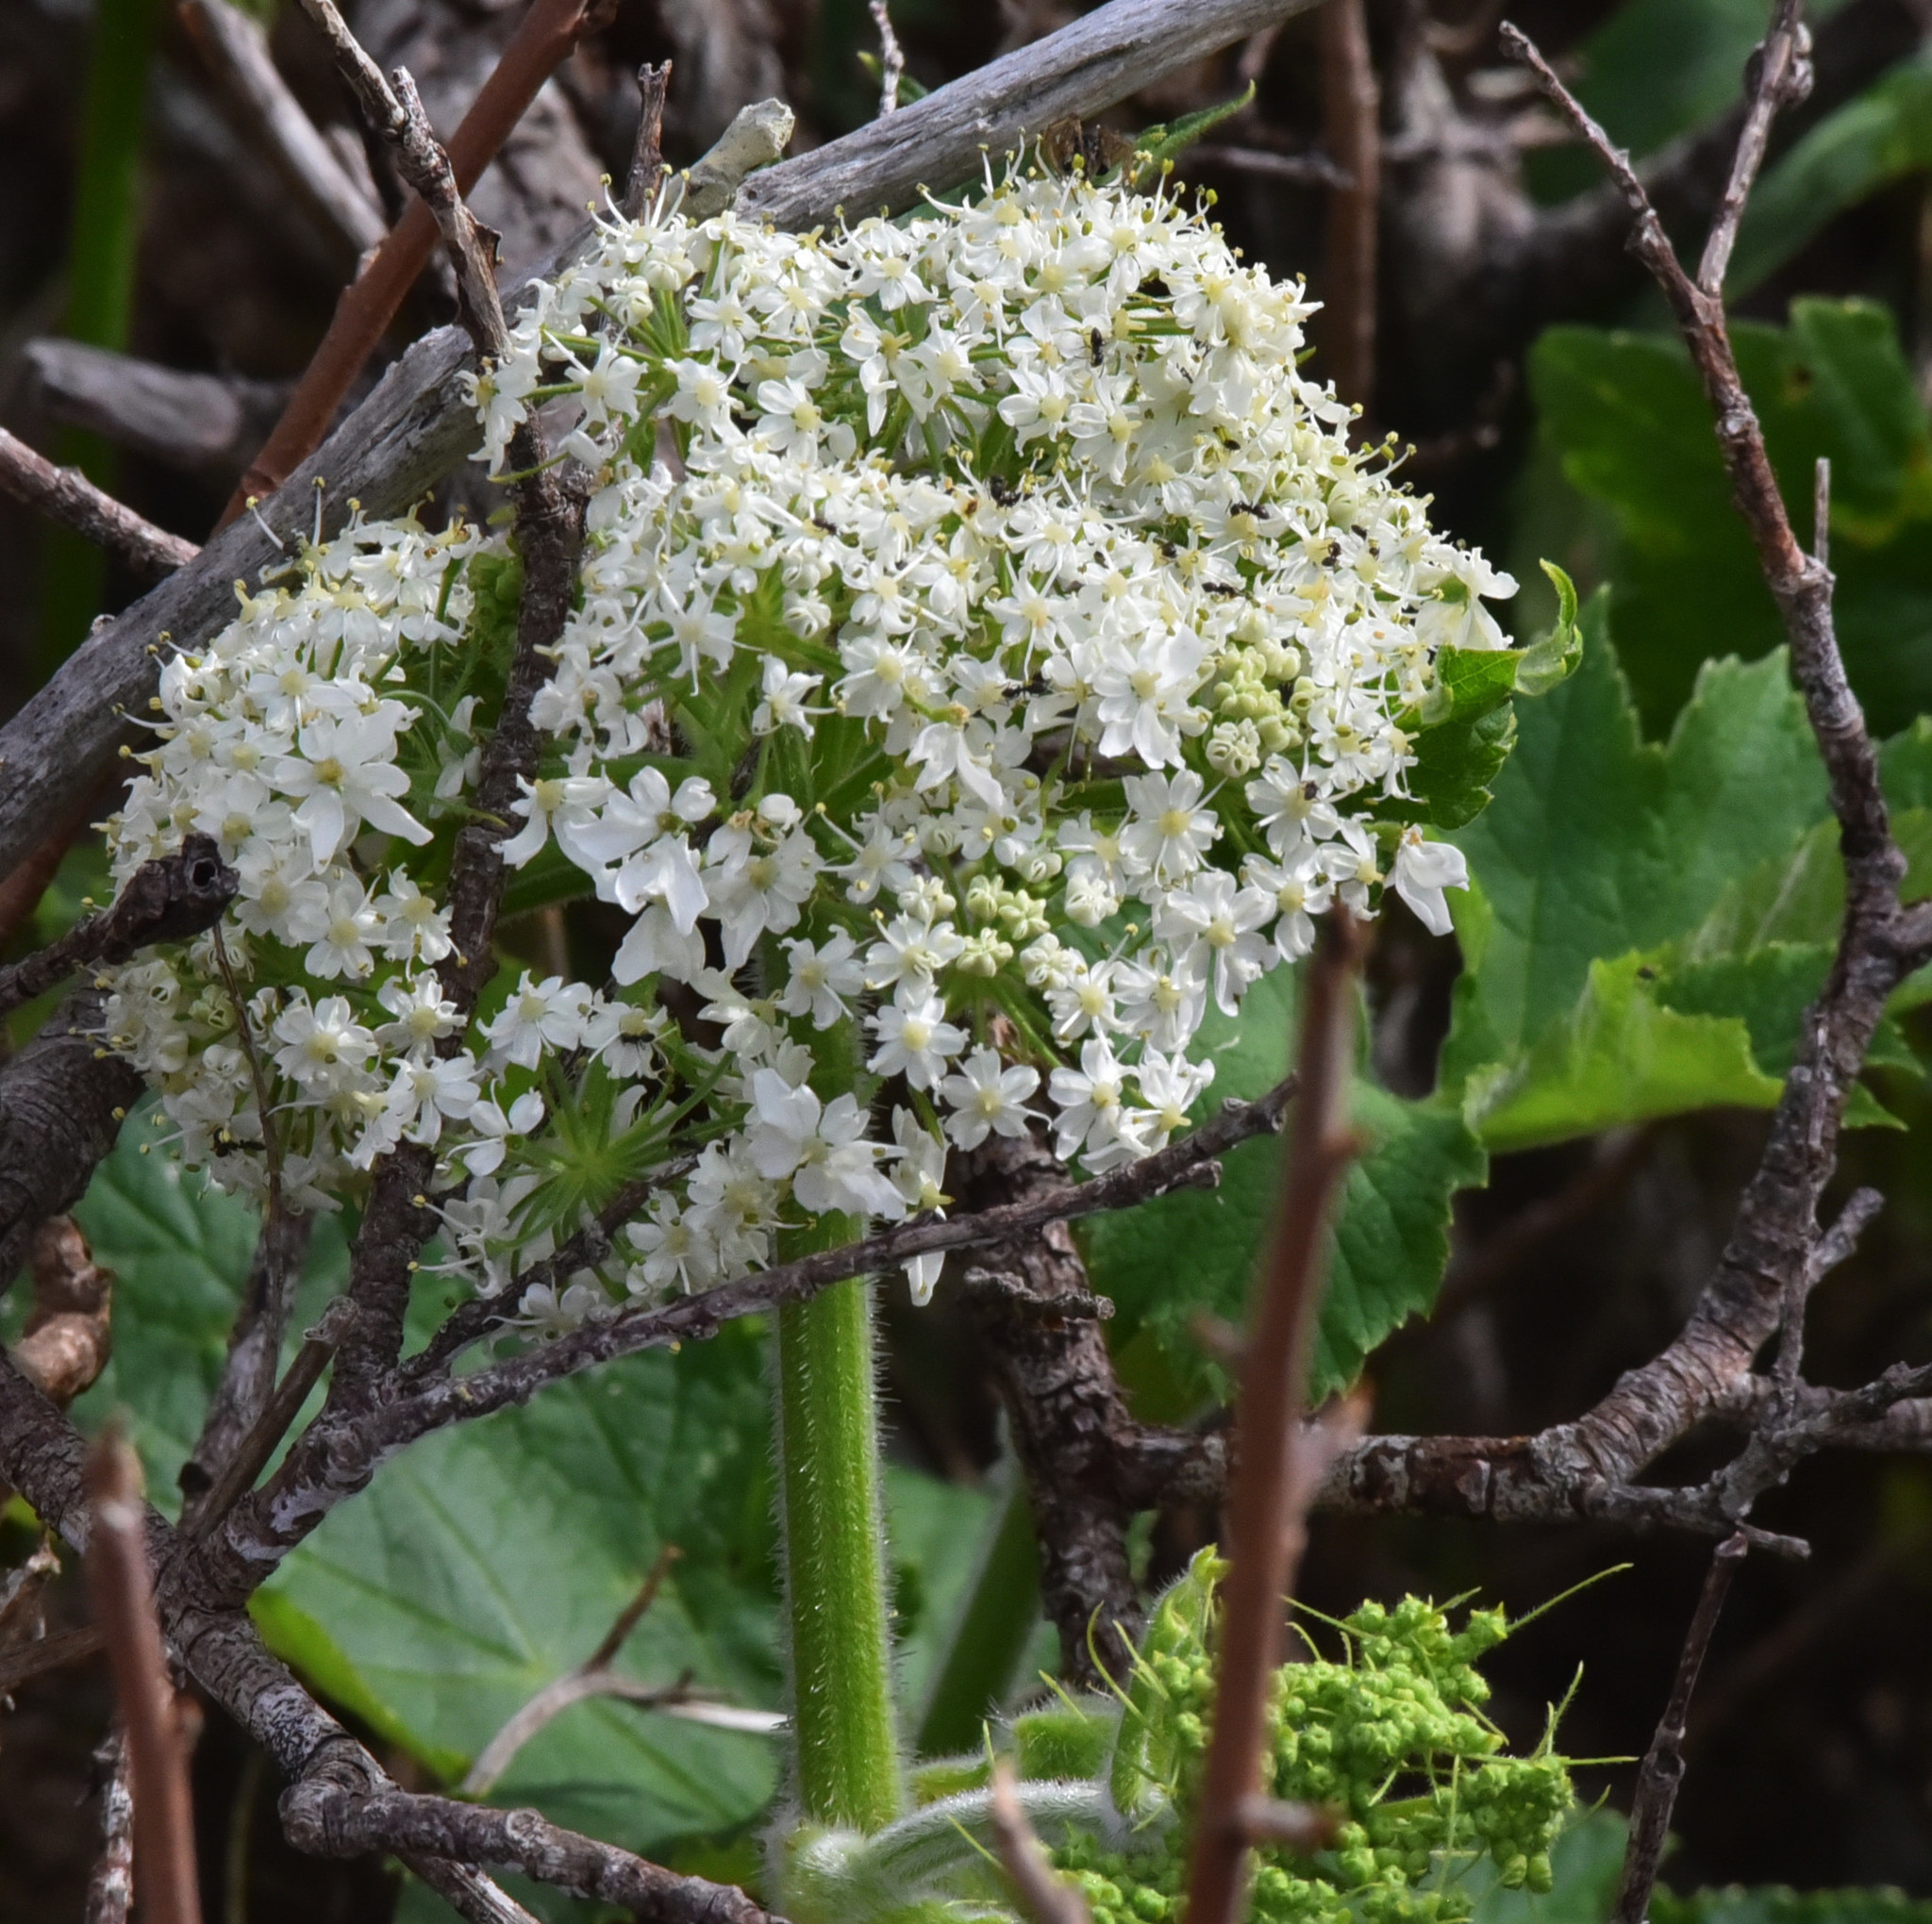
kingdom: Plantae
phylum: Tracheophyta
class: Magnoliopsida
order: Apiales
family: Apiaceae
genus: Heracleum
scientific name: Heracleum maximum
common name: American cow parsnip
